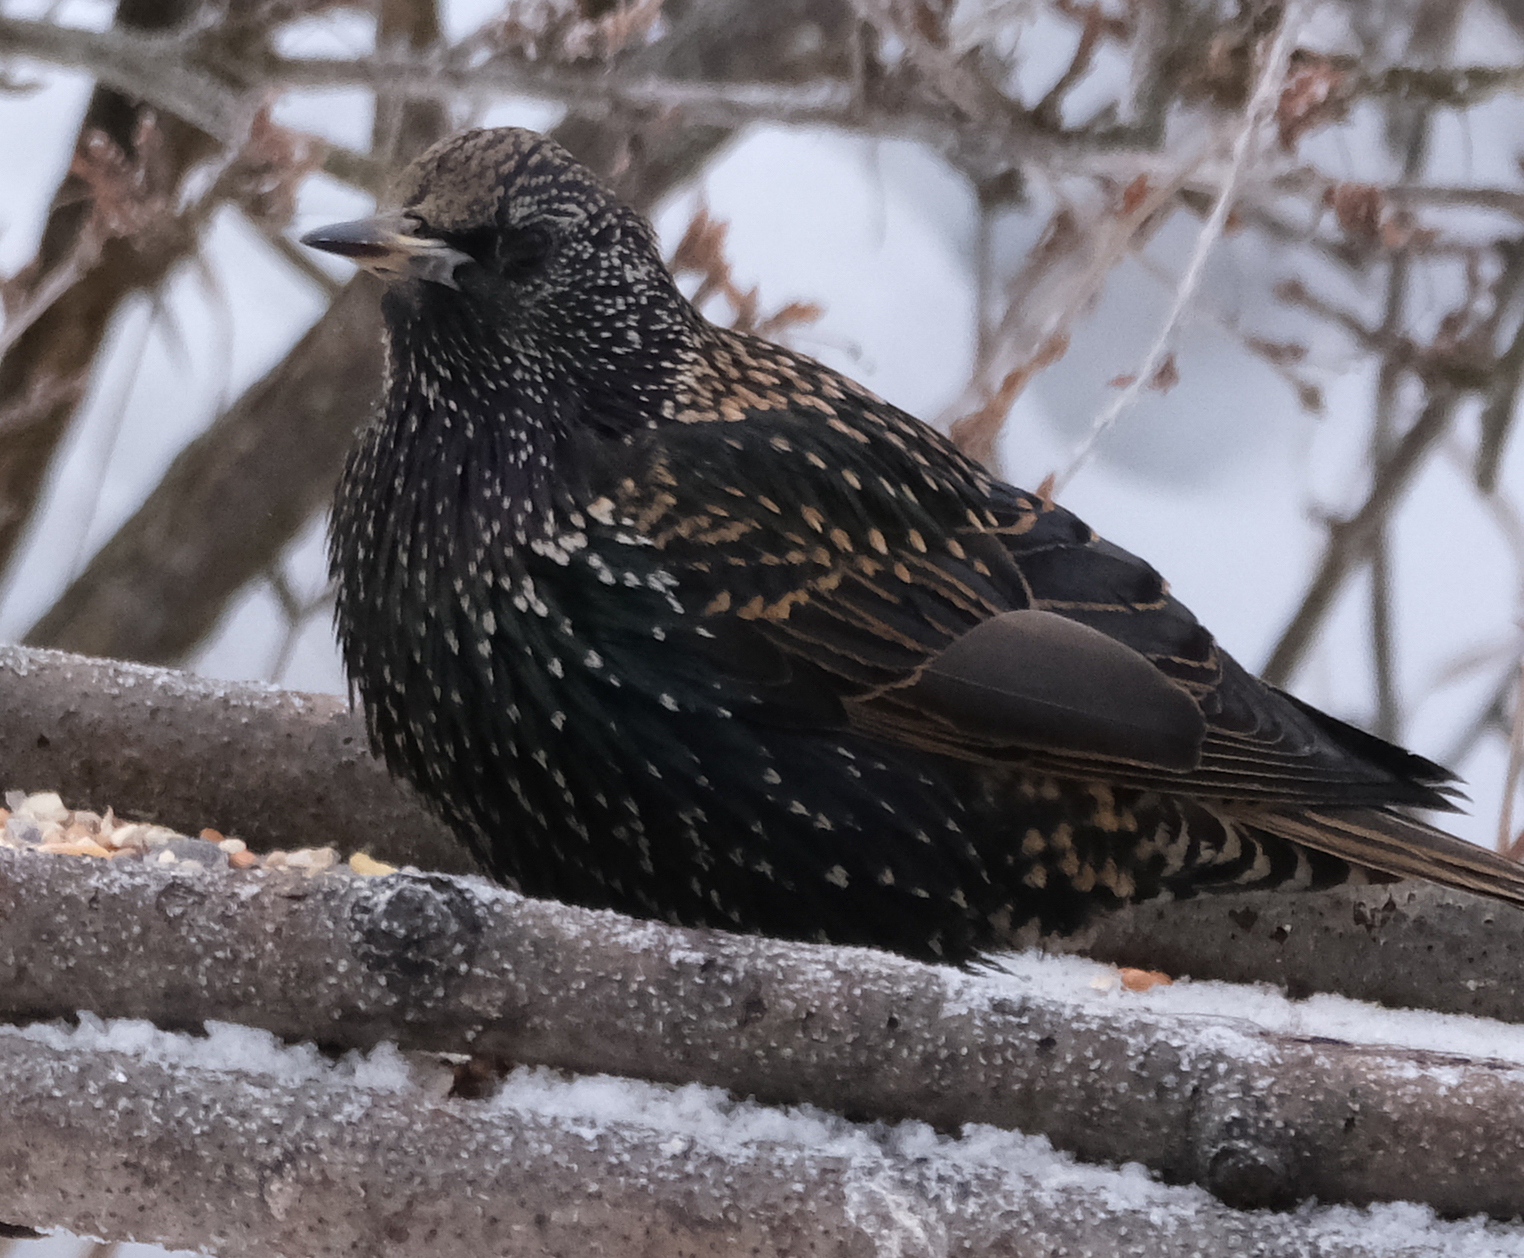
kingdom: Animalia
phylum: Chordata
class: Aves
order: Passeriformes
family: Sturnidae
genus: Sturnus
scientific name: Sturnus vulgaris
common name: Common starling
